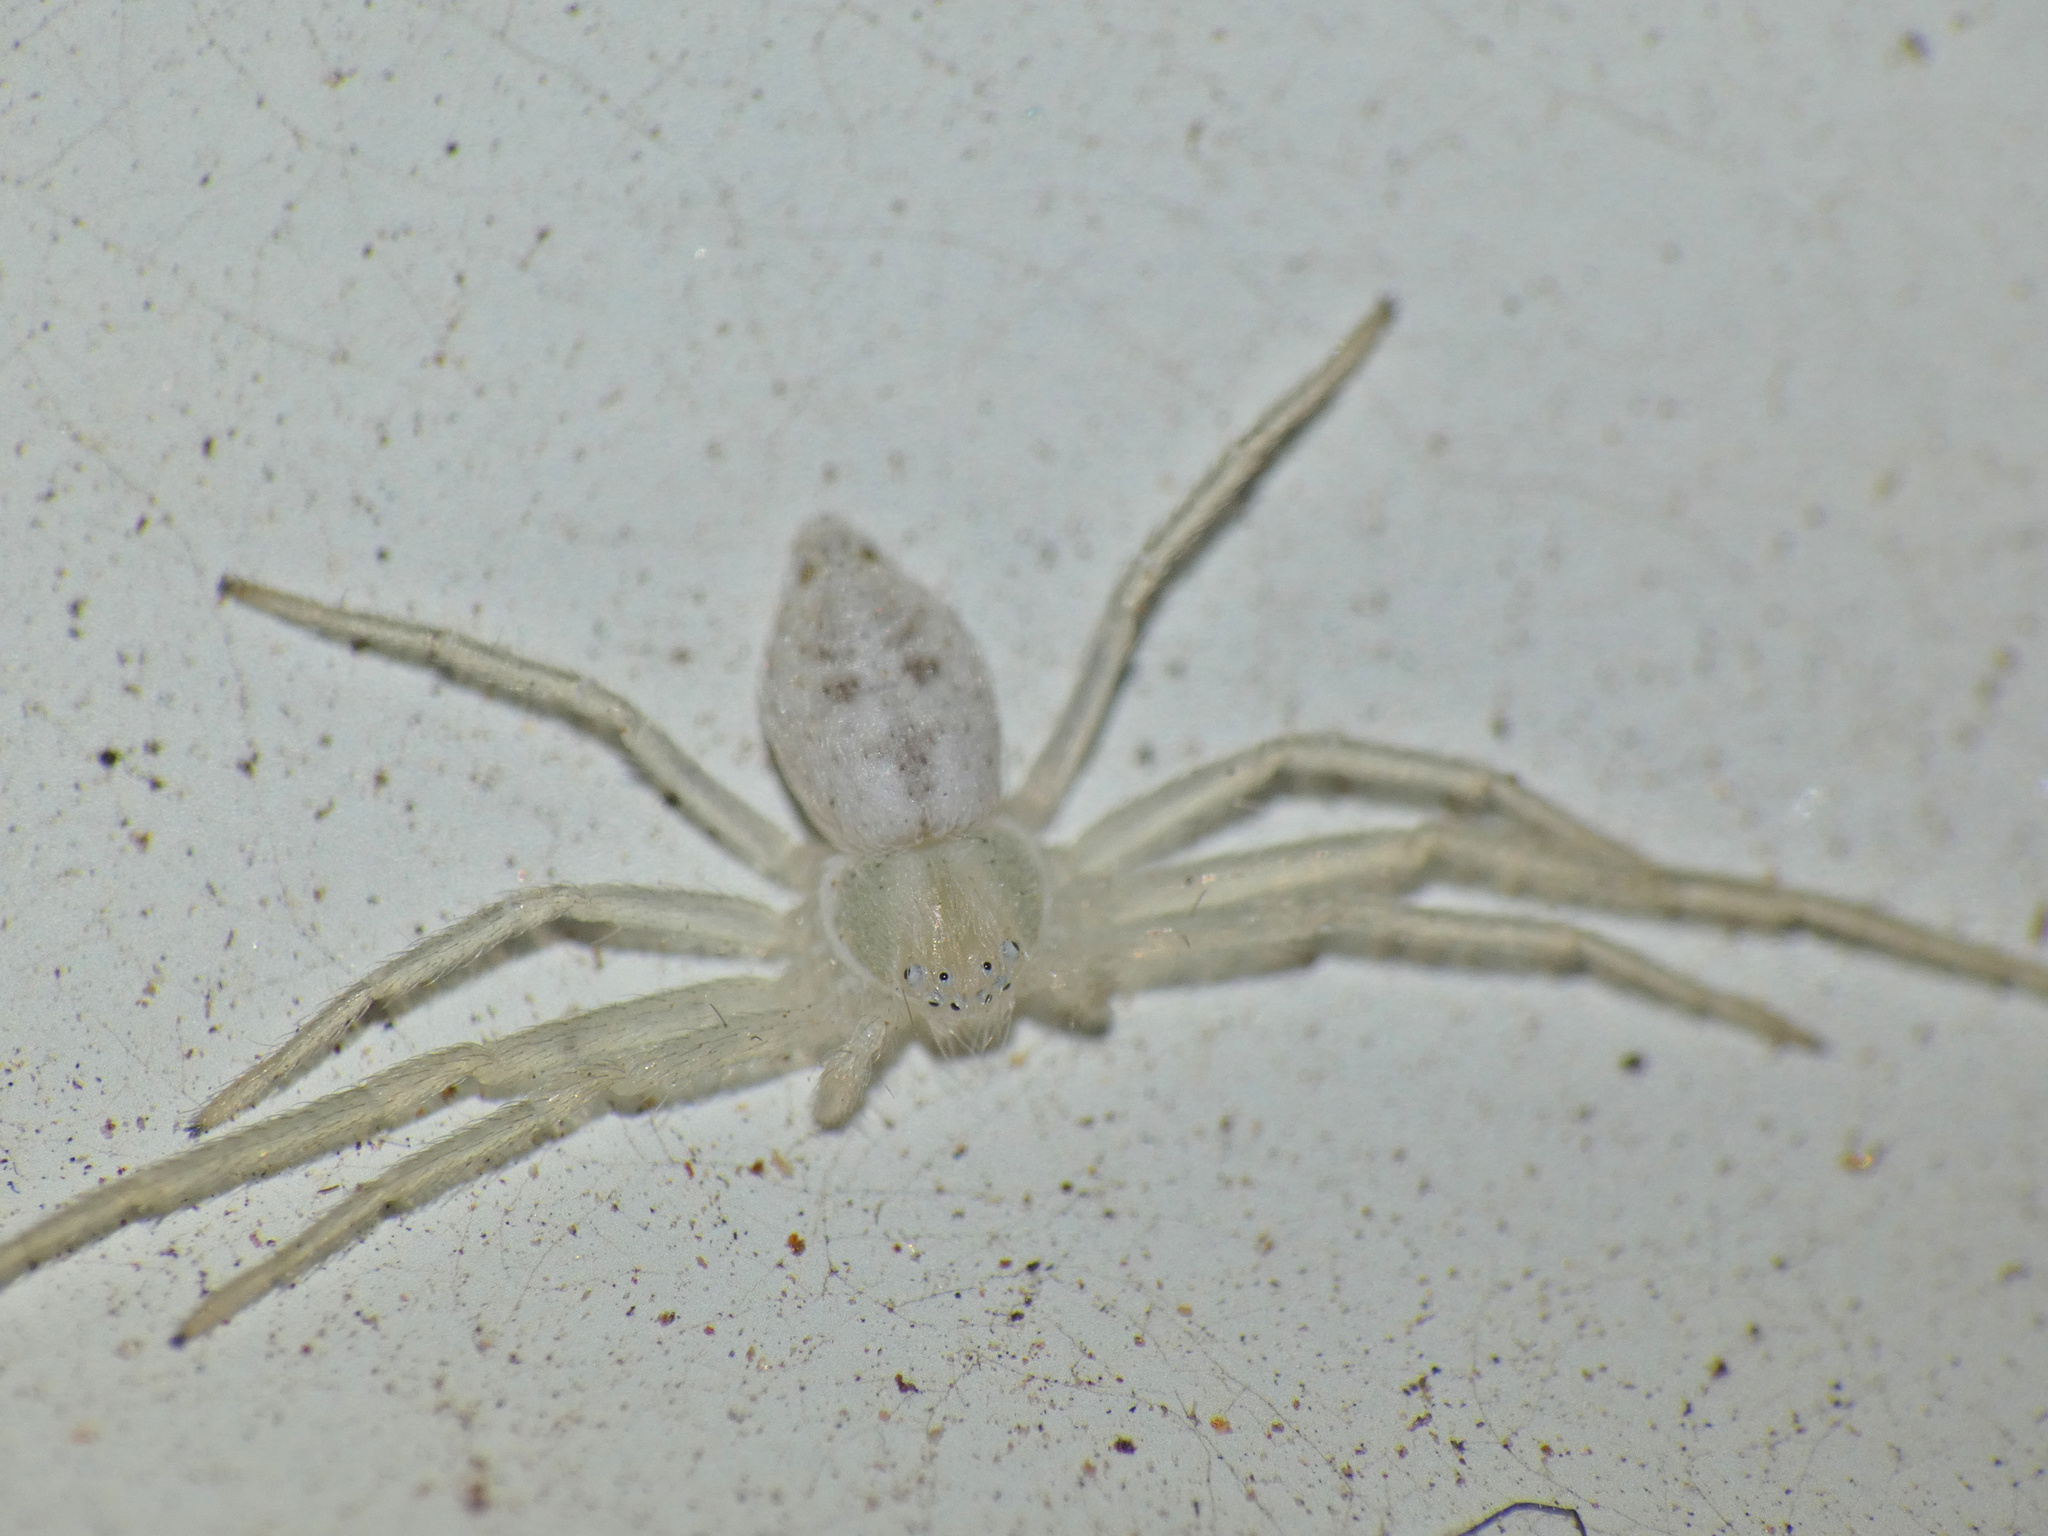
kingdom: Animalia
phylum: Arthropoda
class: Arachnida
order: Araneae
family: Philodromidae
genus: Gephyrota
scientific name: Gephyrota glauca
